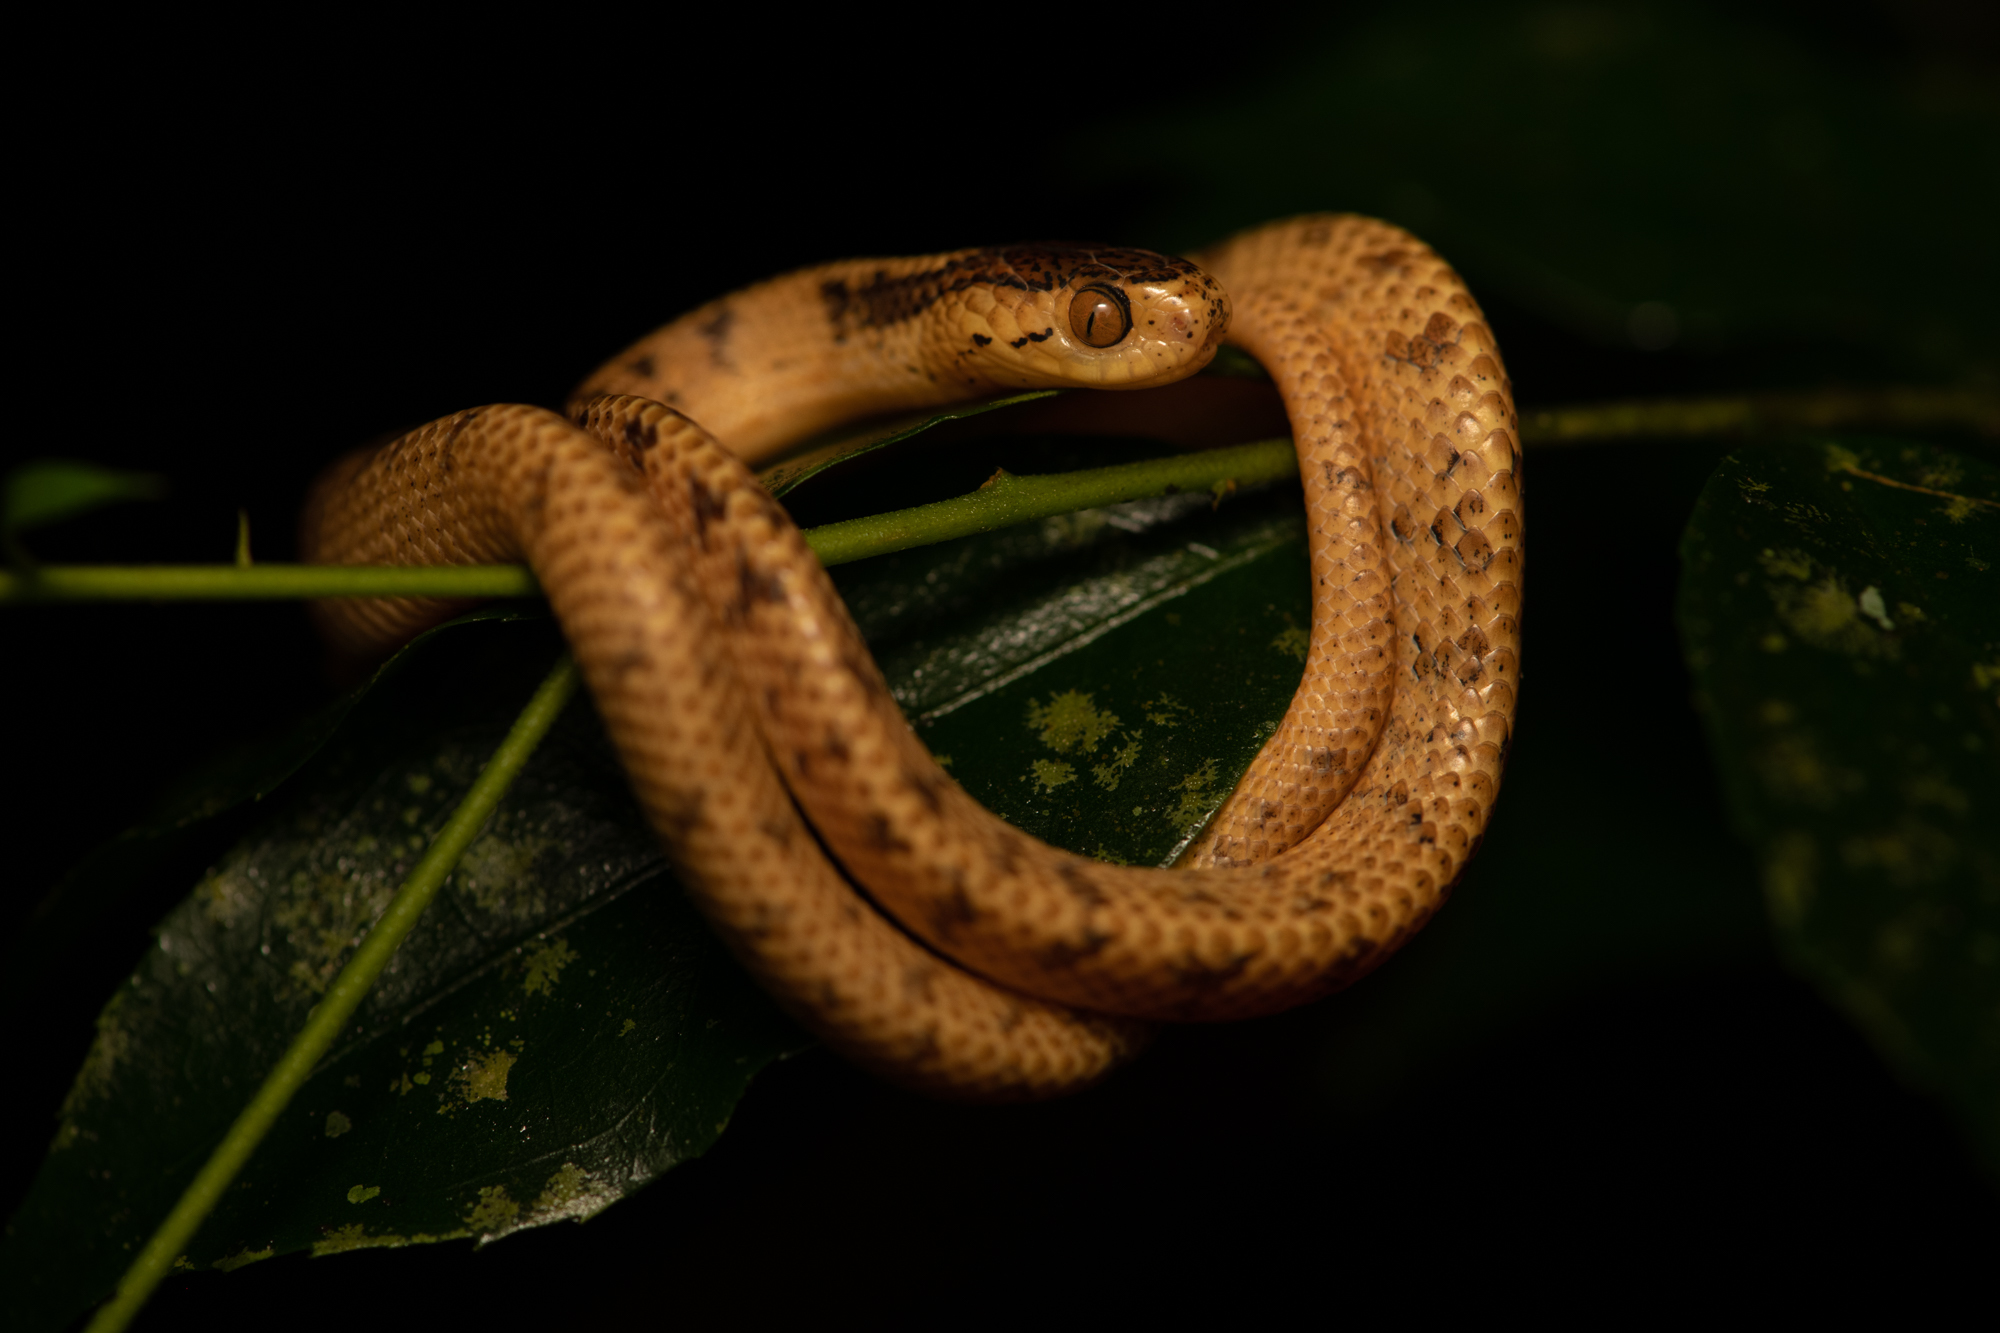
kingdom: Animalia
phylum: Chordata
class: Squamata
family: Pareidae
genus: Pareas
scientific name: Pareas formosensis
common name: Formosa slug snake
